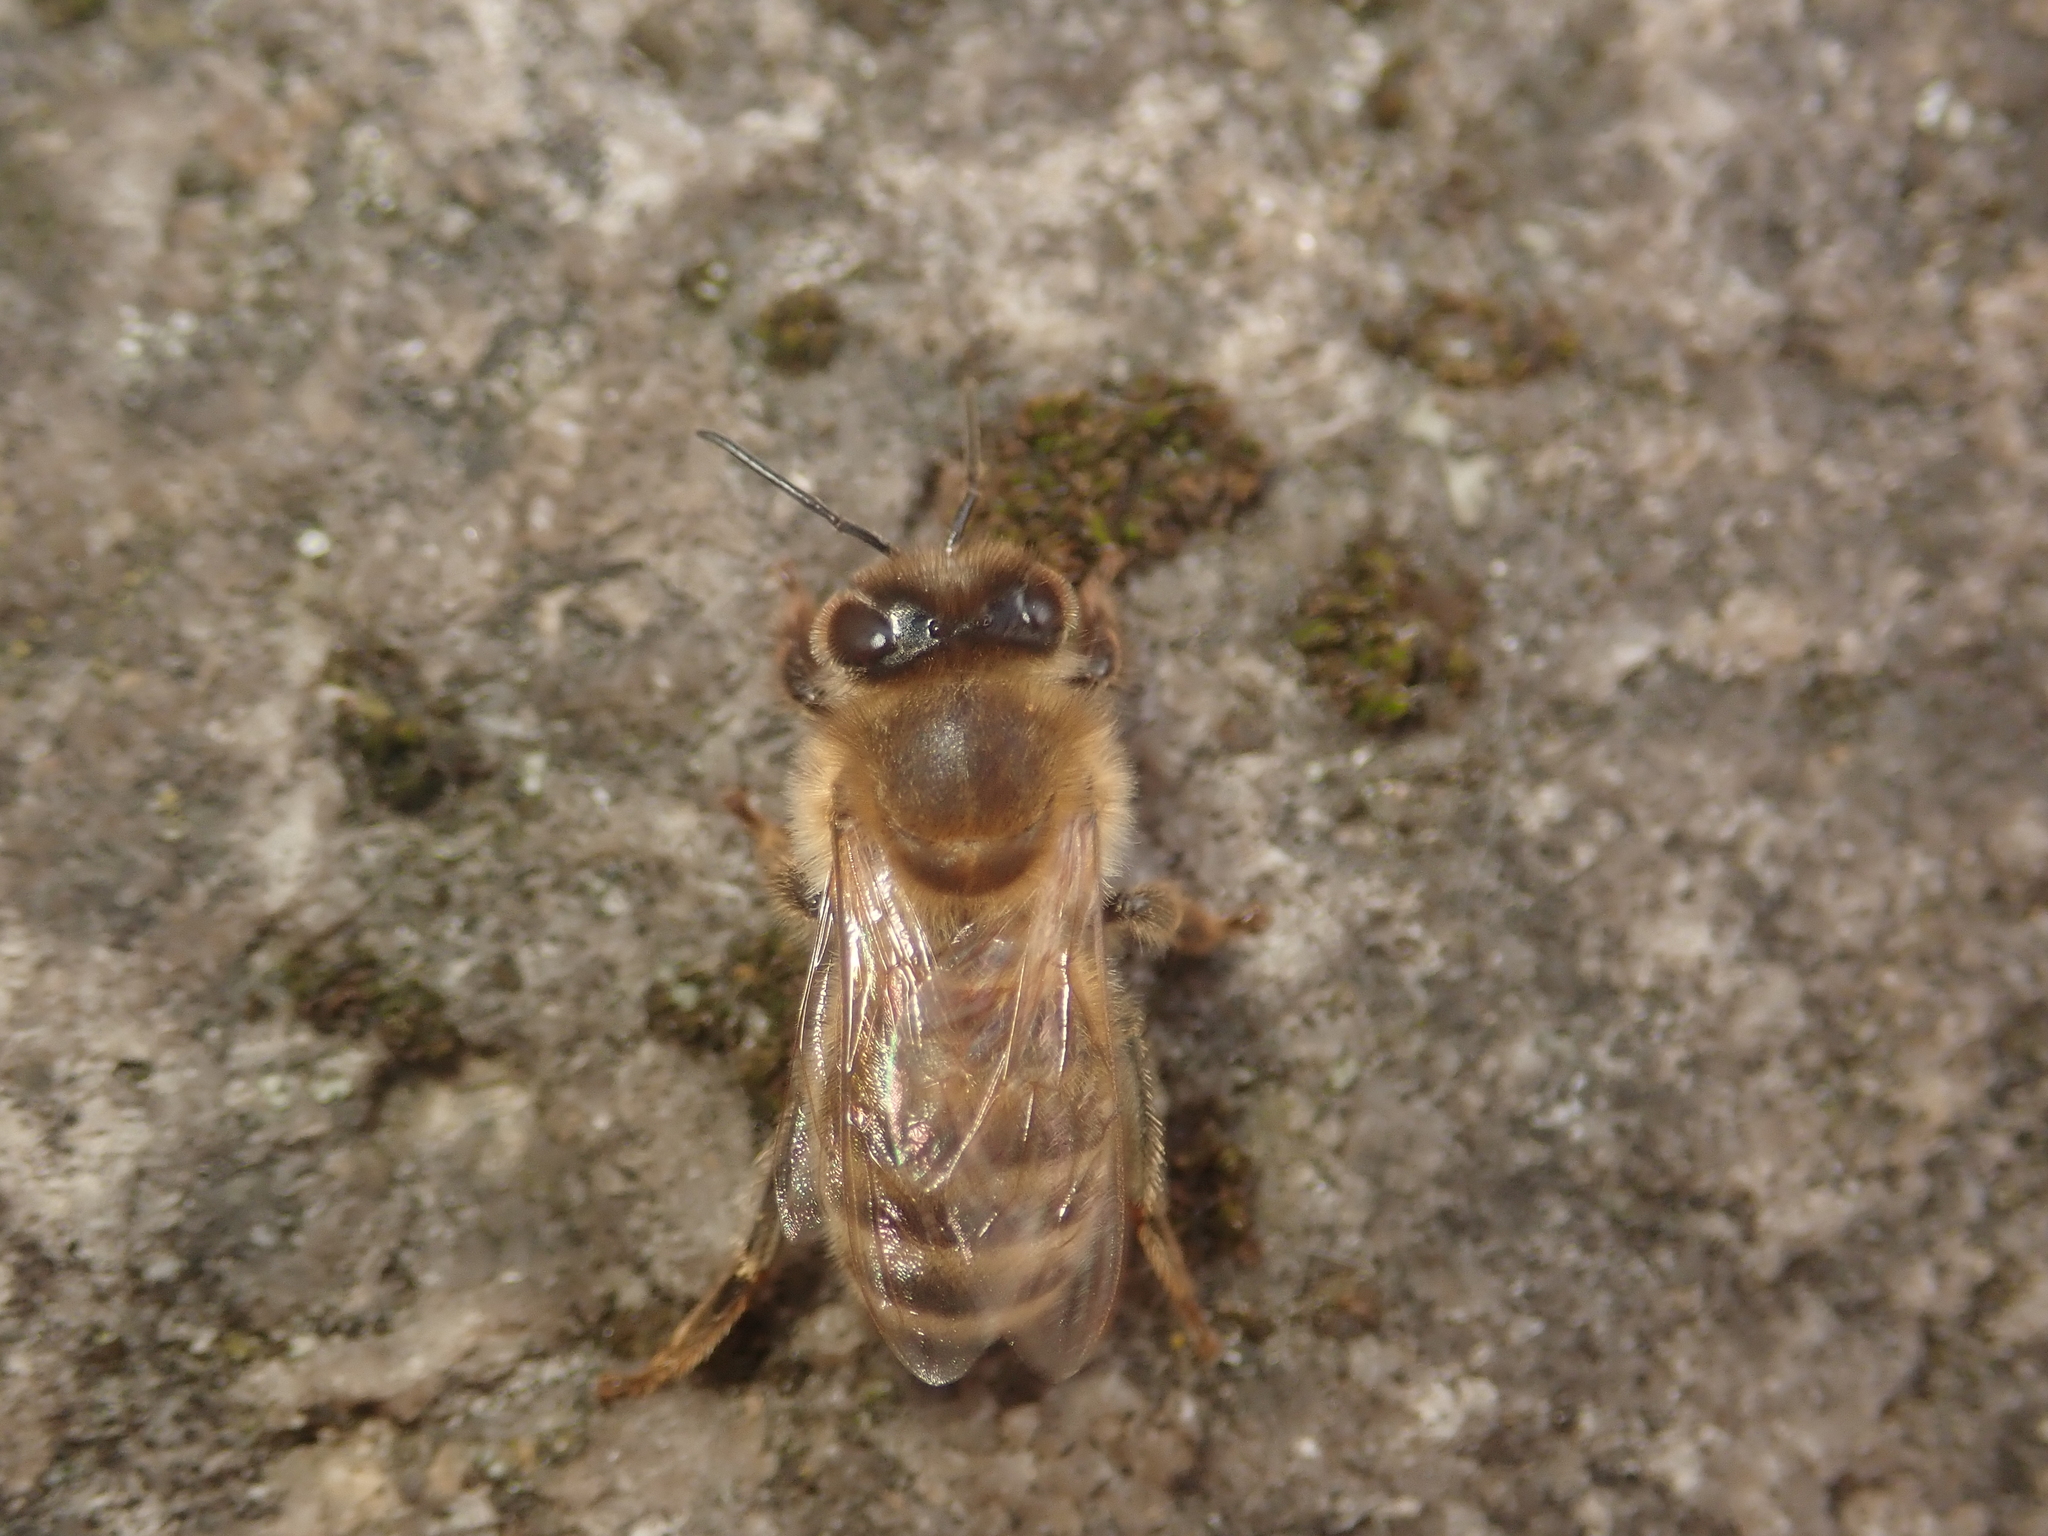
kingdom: Animalia
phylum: Arthropoda
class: Insecta
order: Hymenoptera
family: Apidae
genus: Apis
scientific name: Apis mellifera
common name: Honey bee
